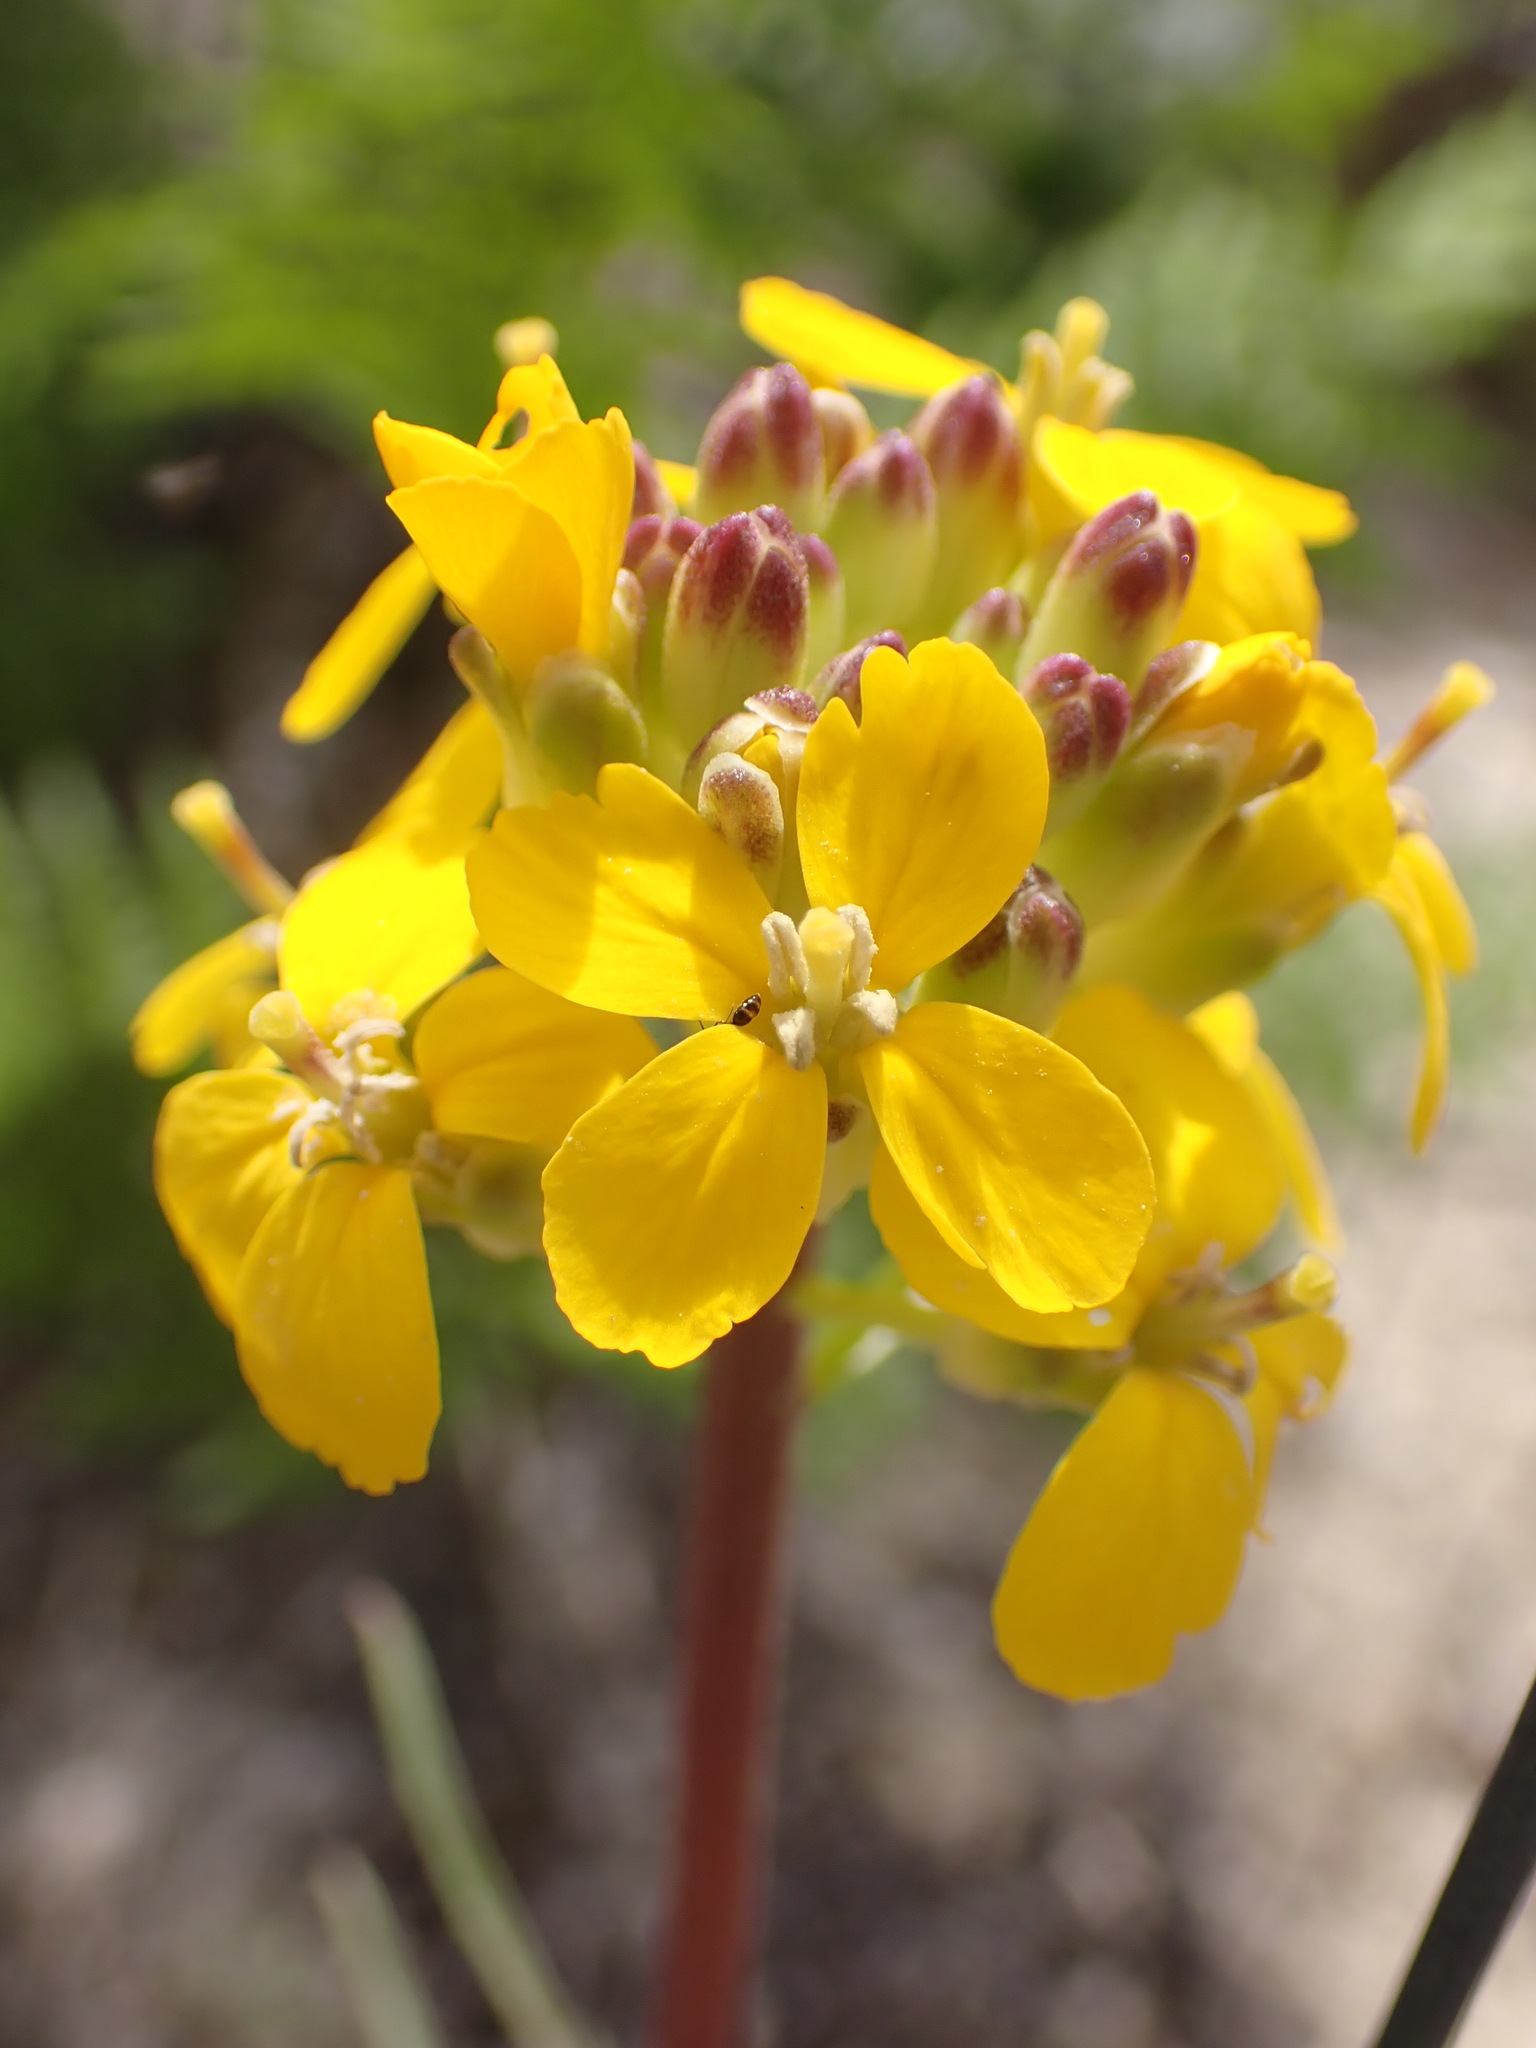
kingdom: Plantae
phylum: Tracheophyta
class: Magnoliopsida
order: Brassicales
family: Brassicaceae
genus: Erysimum
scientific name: Erysimum teretifolium
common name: Ben lomond wallflower
